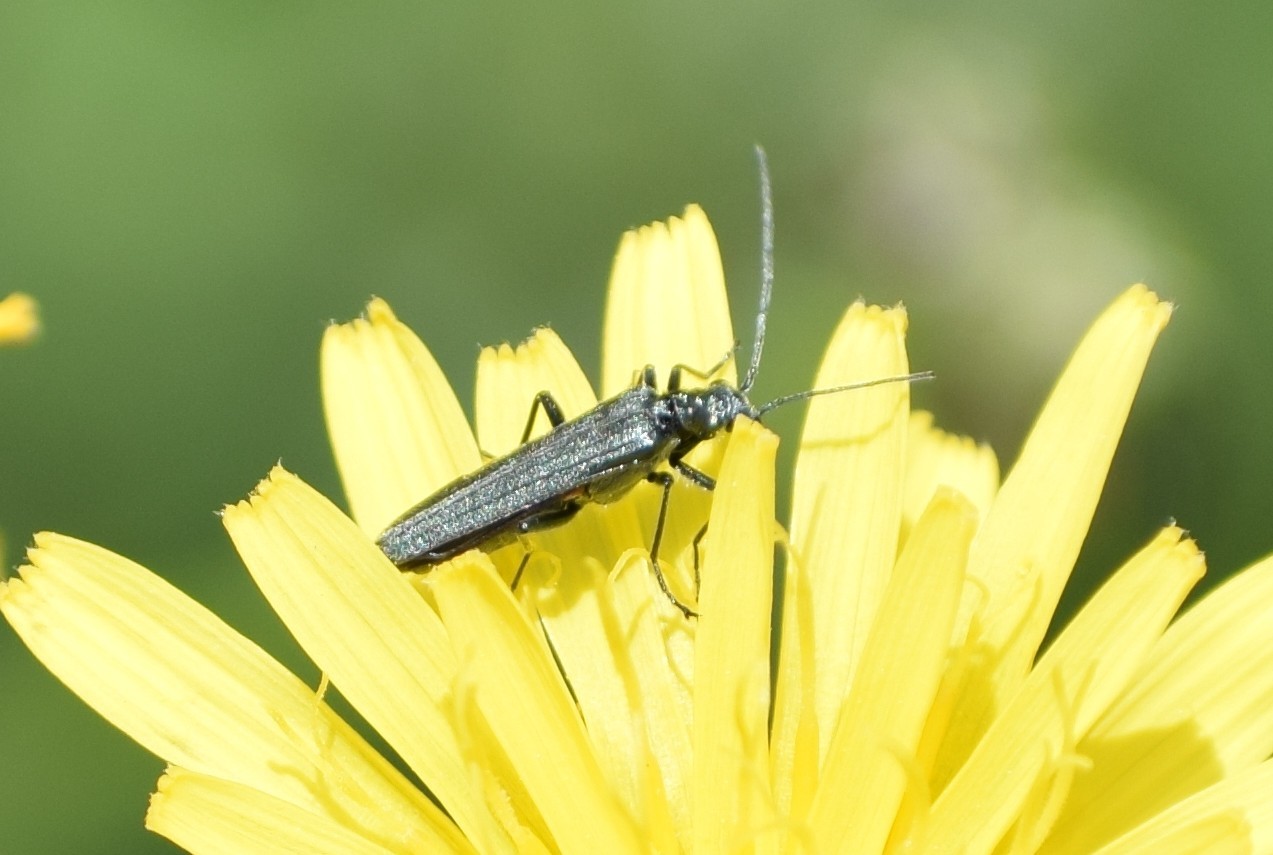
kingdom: Animalia
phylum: Arthropoda
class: Insecta
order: Coleoptera
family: Oedemeridae
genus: Oedemera
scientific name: Oedemera
